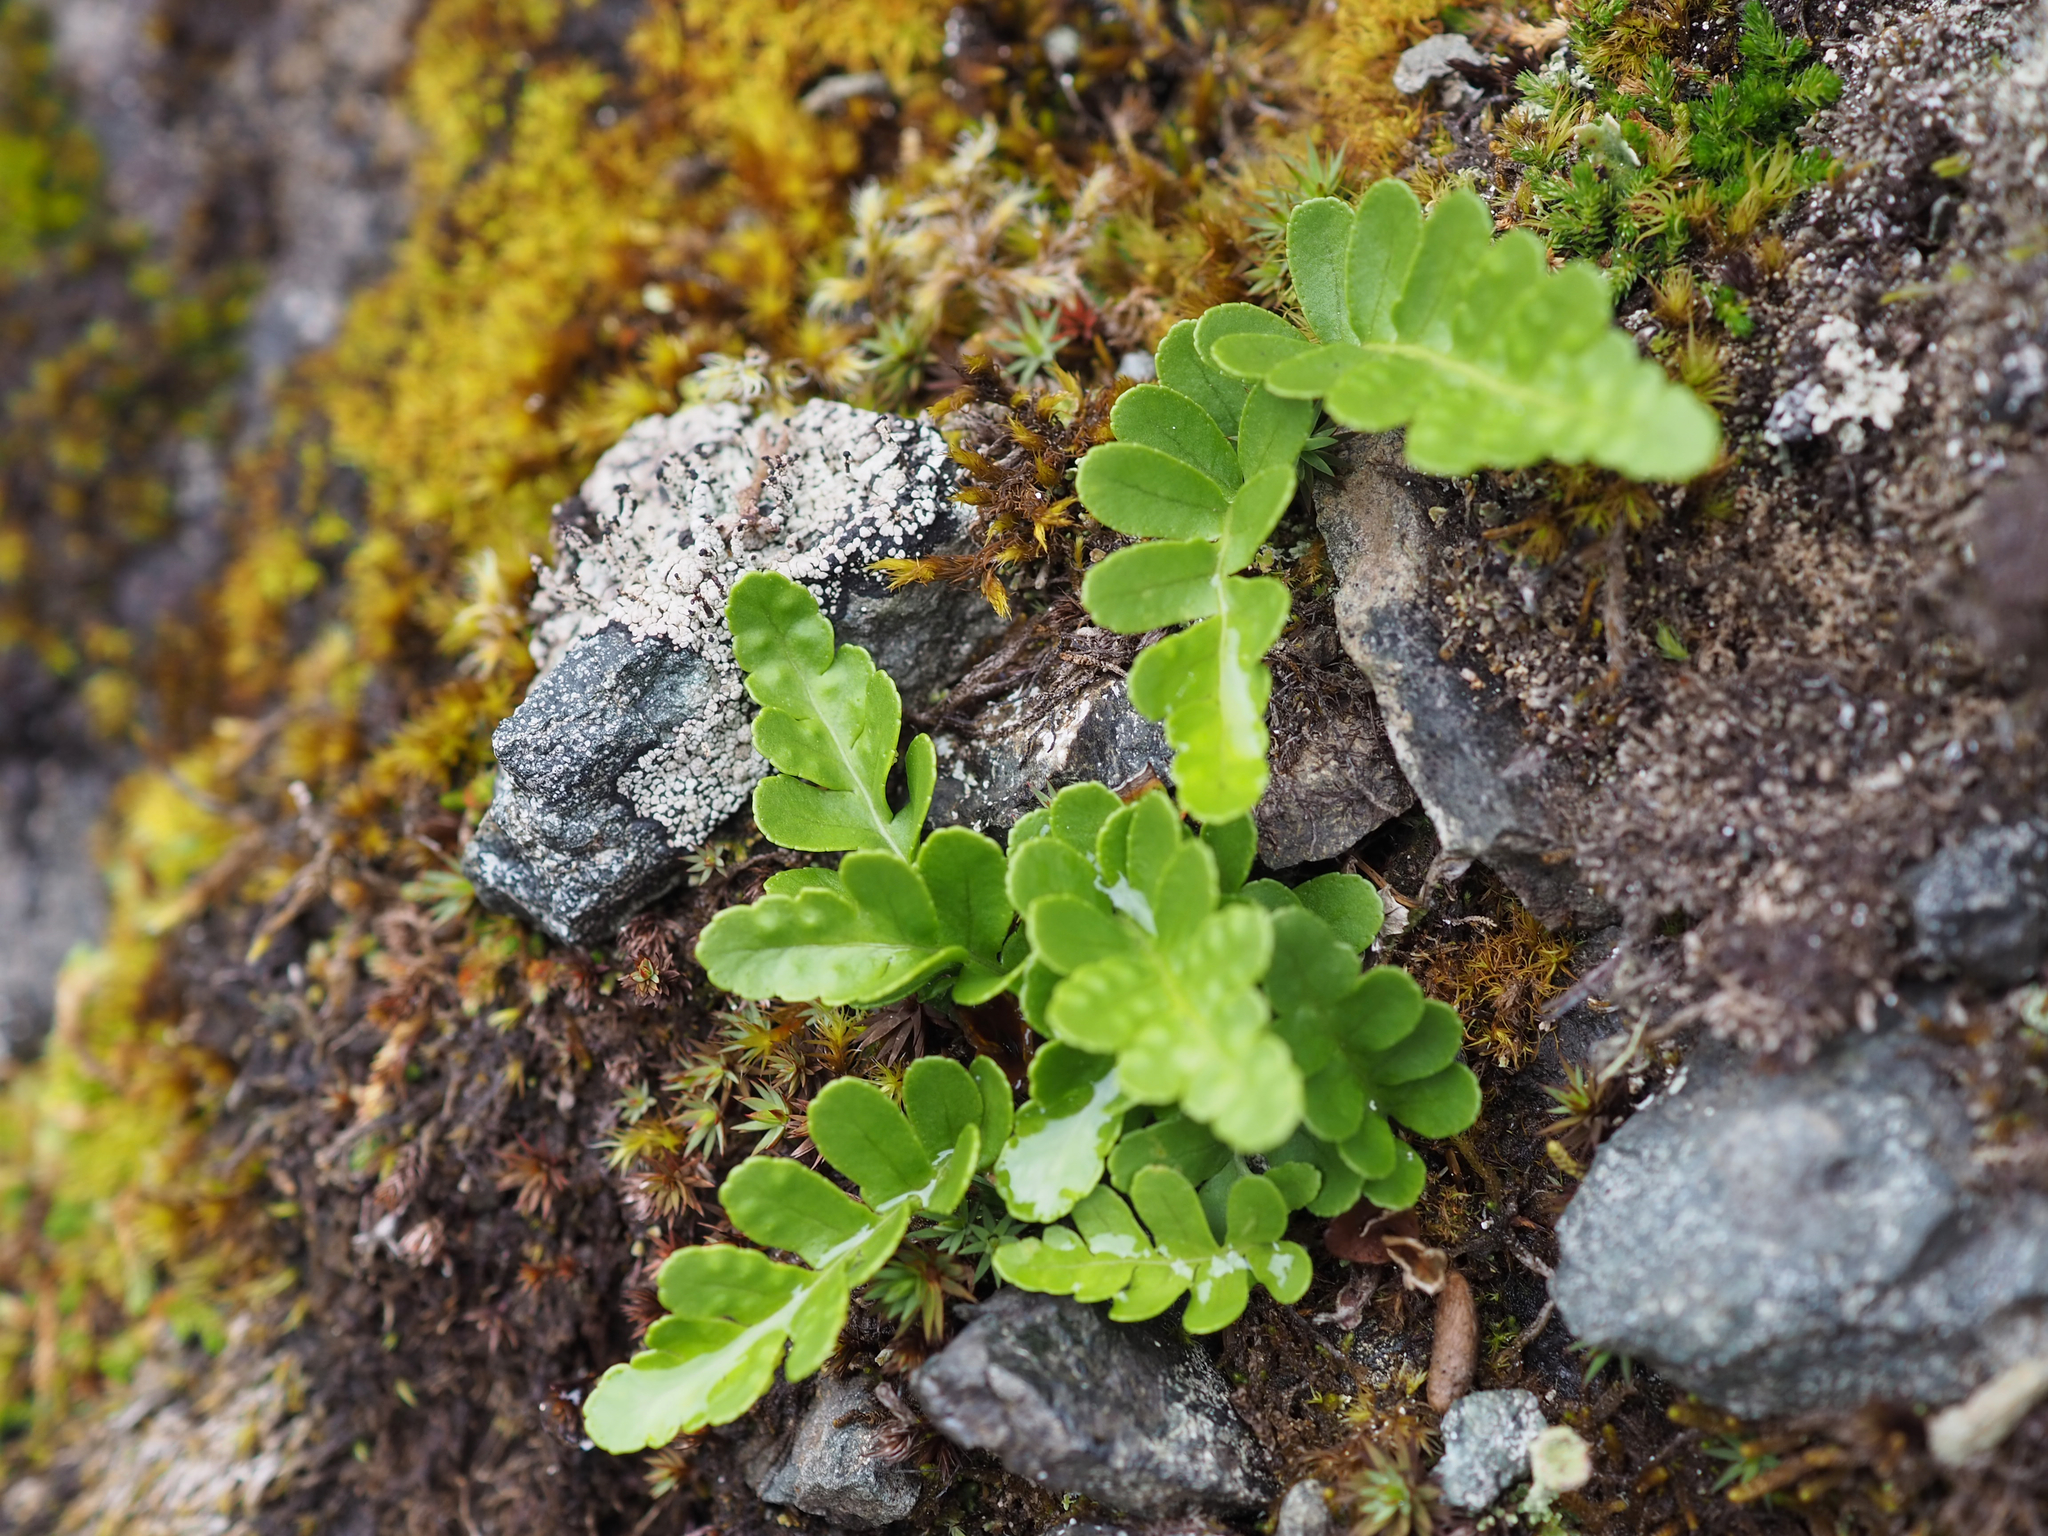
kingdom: Plantae
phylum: Tracheophyta
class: Polypodiopsida
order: Polypodiales
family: Polypodiaceae
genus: Polypodium
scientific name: Polypodium amorphum
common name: Pacific polypody
